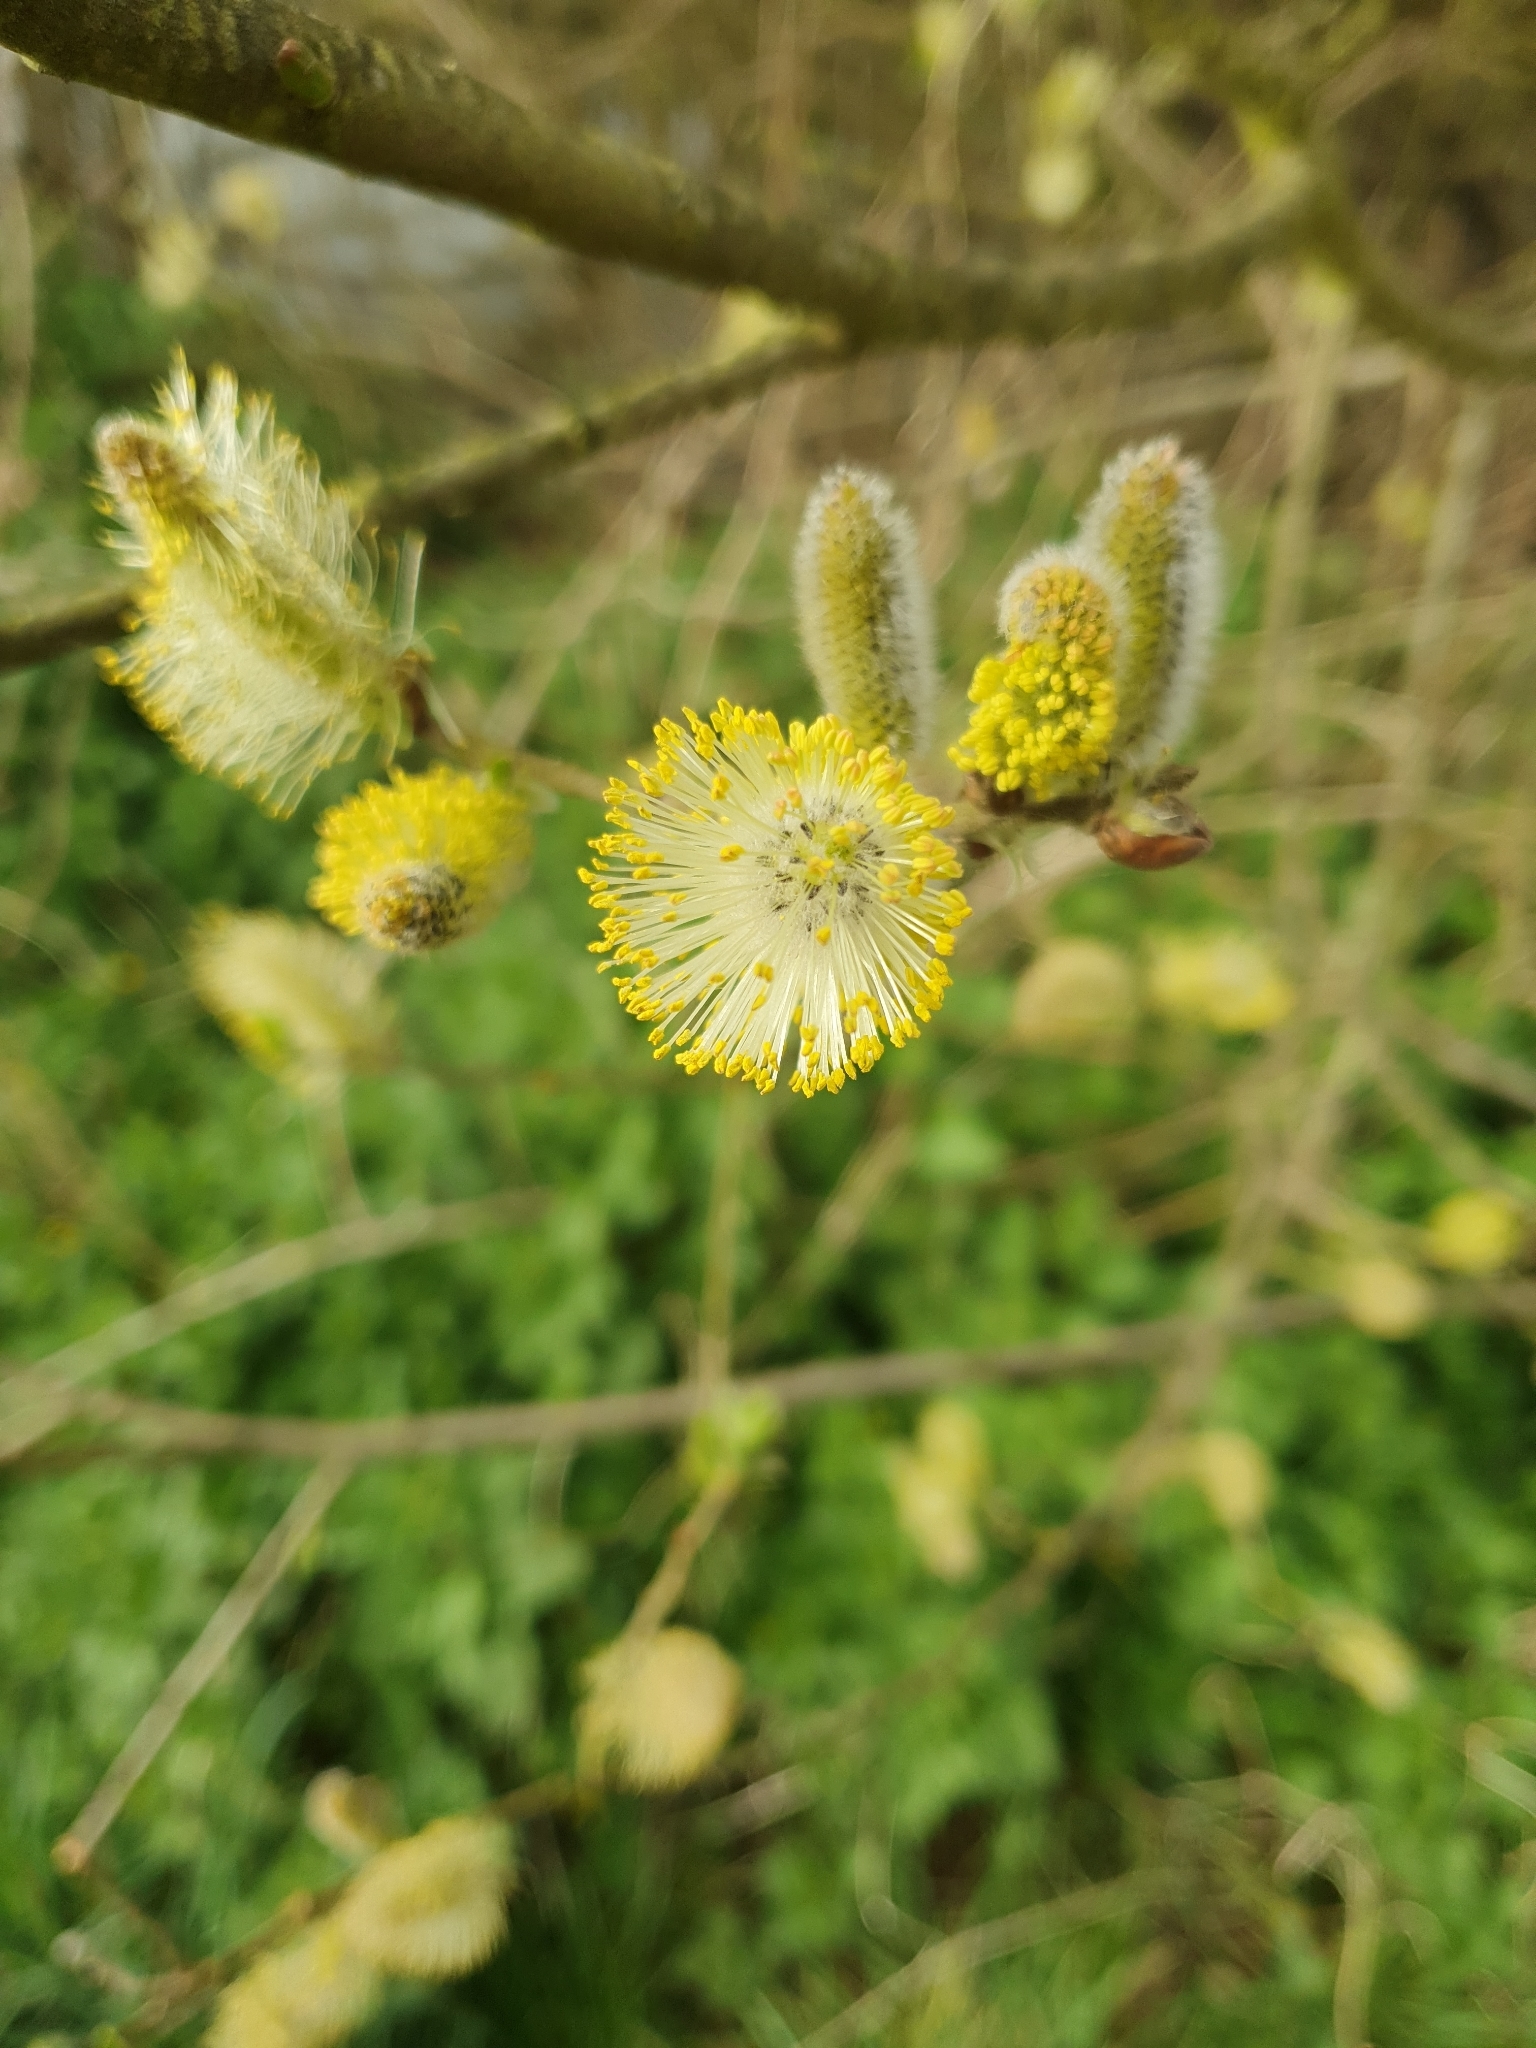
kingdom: Plantae
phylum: Tracheophyta
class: Magnoliopsida
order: Malpighiales
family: Salicaceae
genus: Salix
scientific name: Salix caprea
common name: Goat willow
